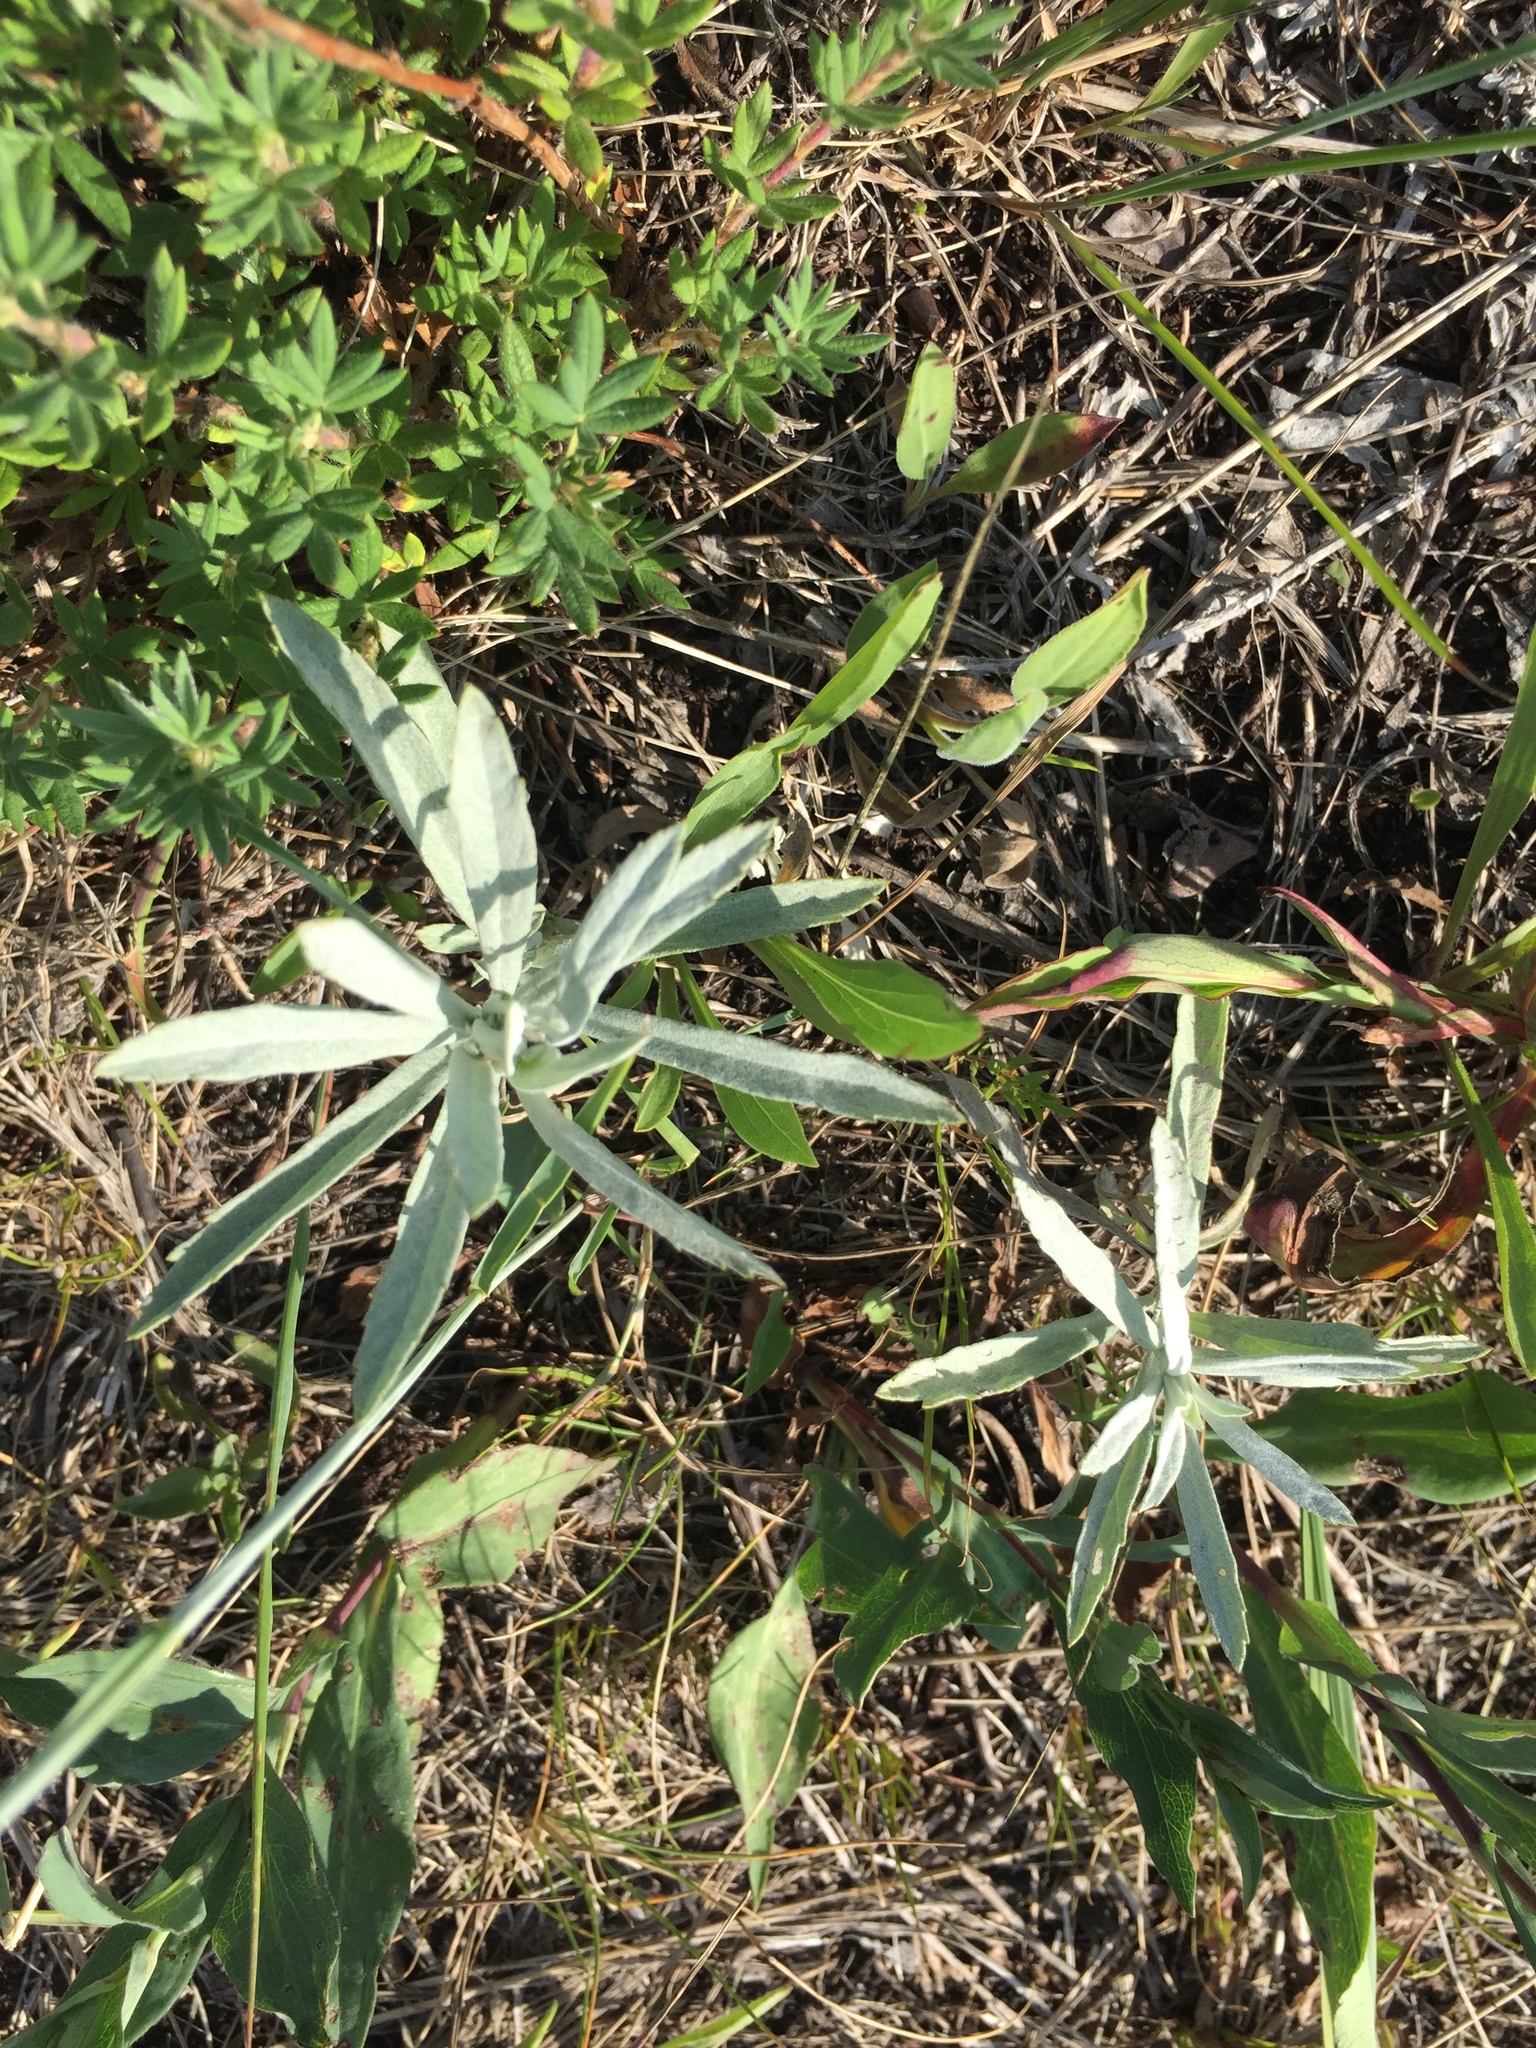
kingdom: Plantae
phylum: Tracheophyta
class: Magnoliopsida
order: Asterales
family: Asteraceae
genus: Artemisia
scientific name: Artemisia ludoviciana
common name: Western mugwort
